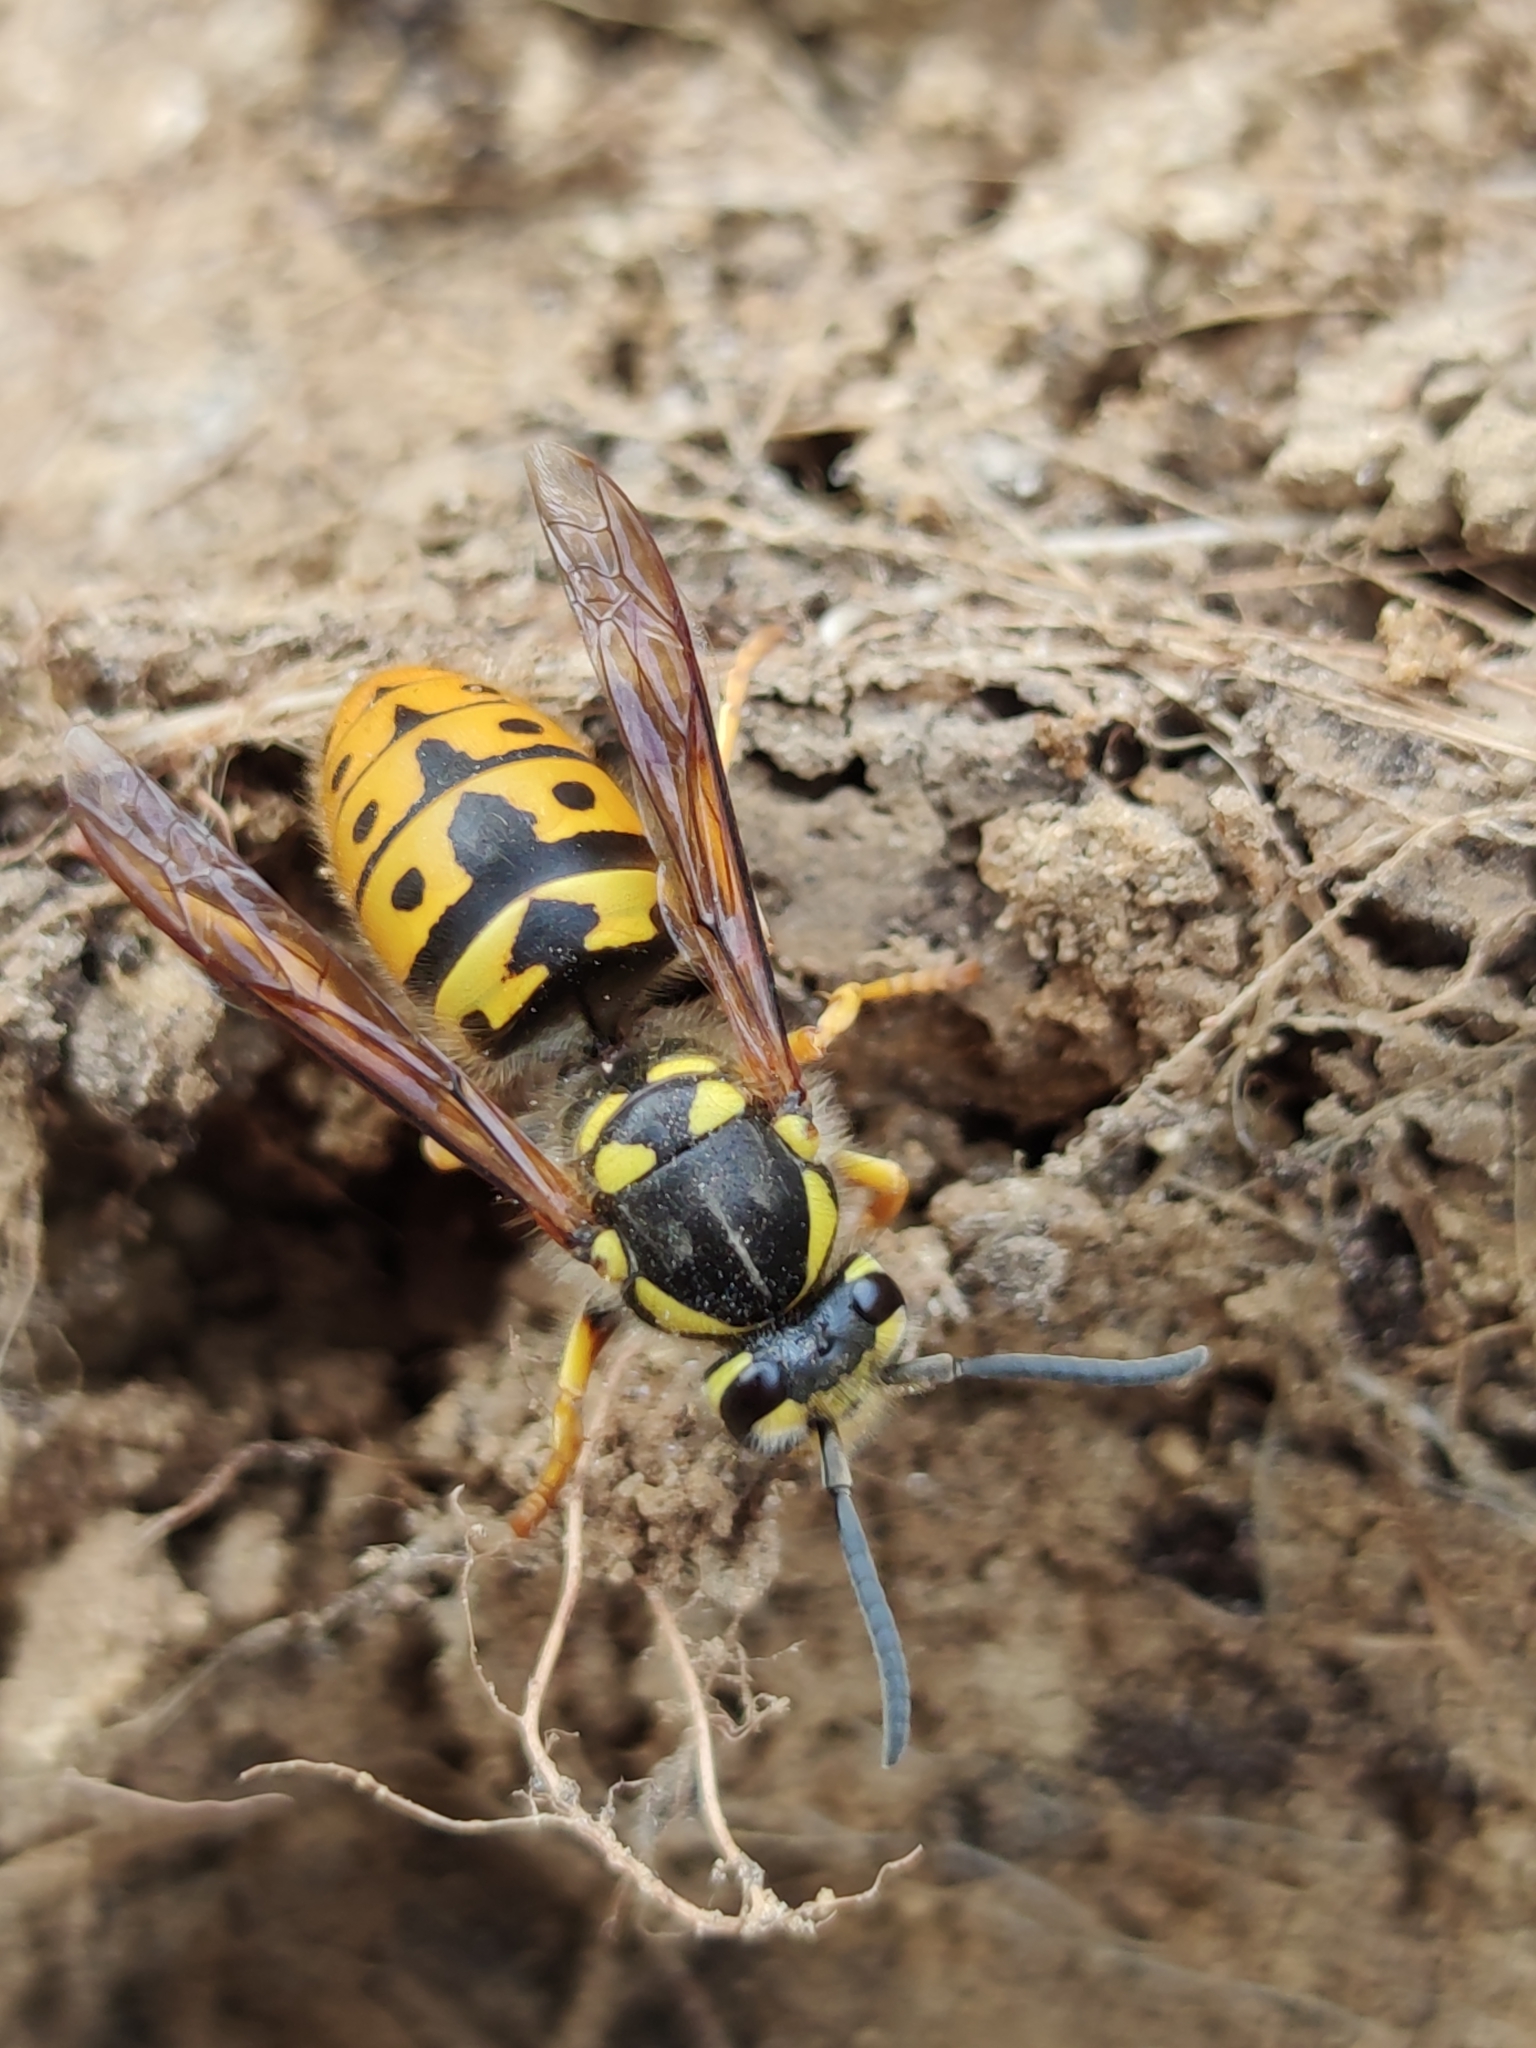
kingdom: Animalia
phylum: Arthropoda
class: Insecta
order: Hymenoptera
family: Vespidae
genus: Vespula
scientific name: Vespula germanica
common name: German wasp
